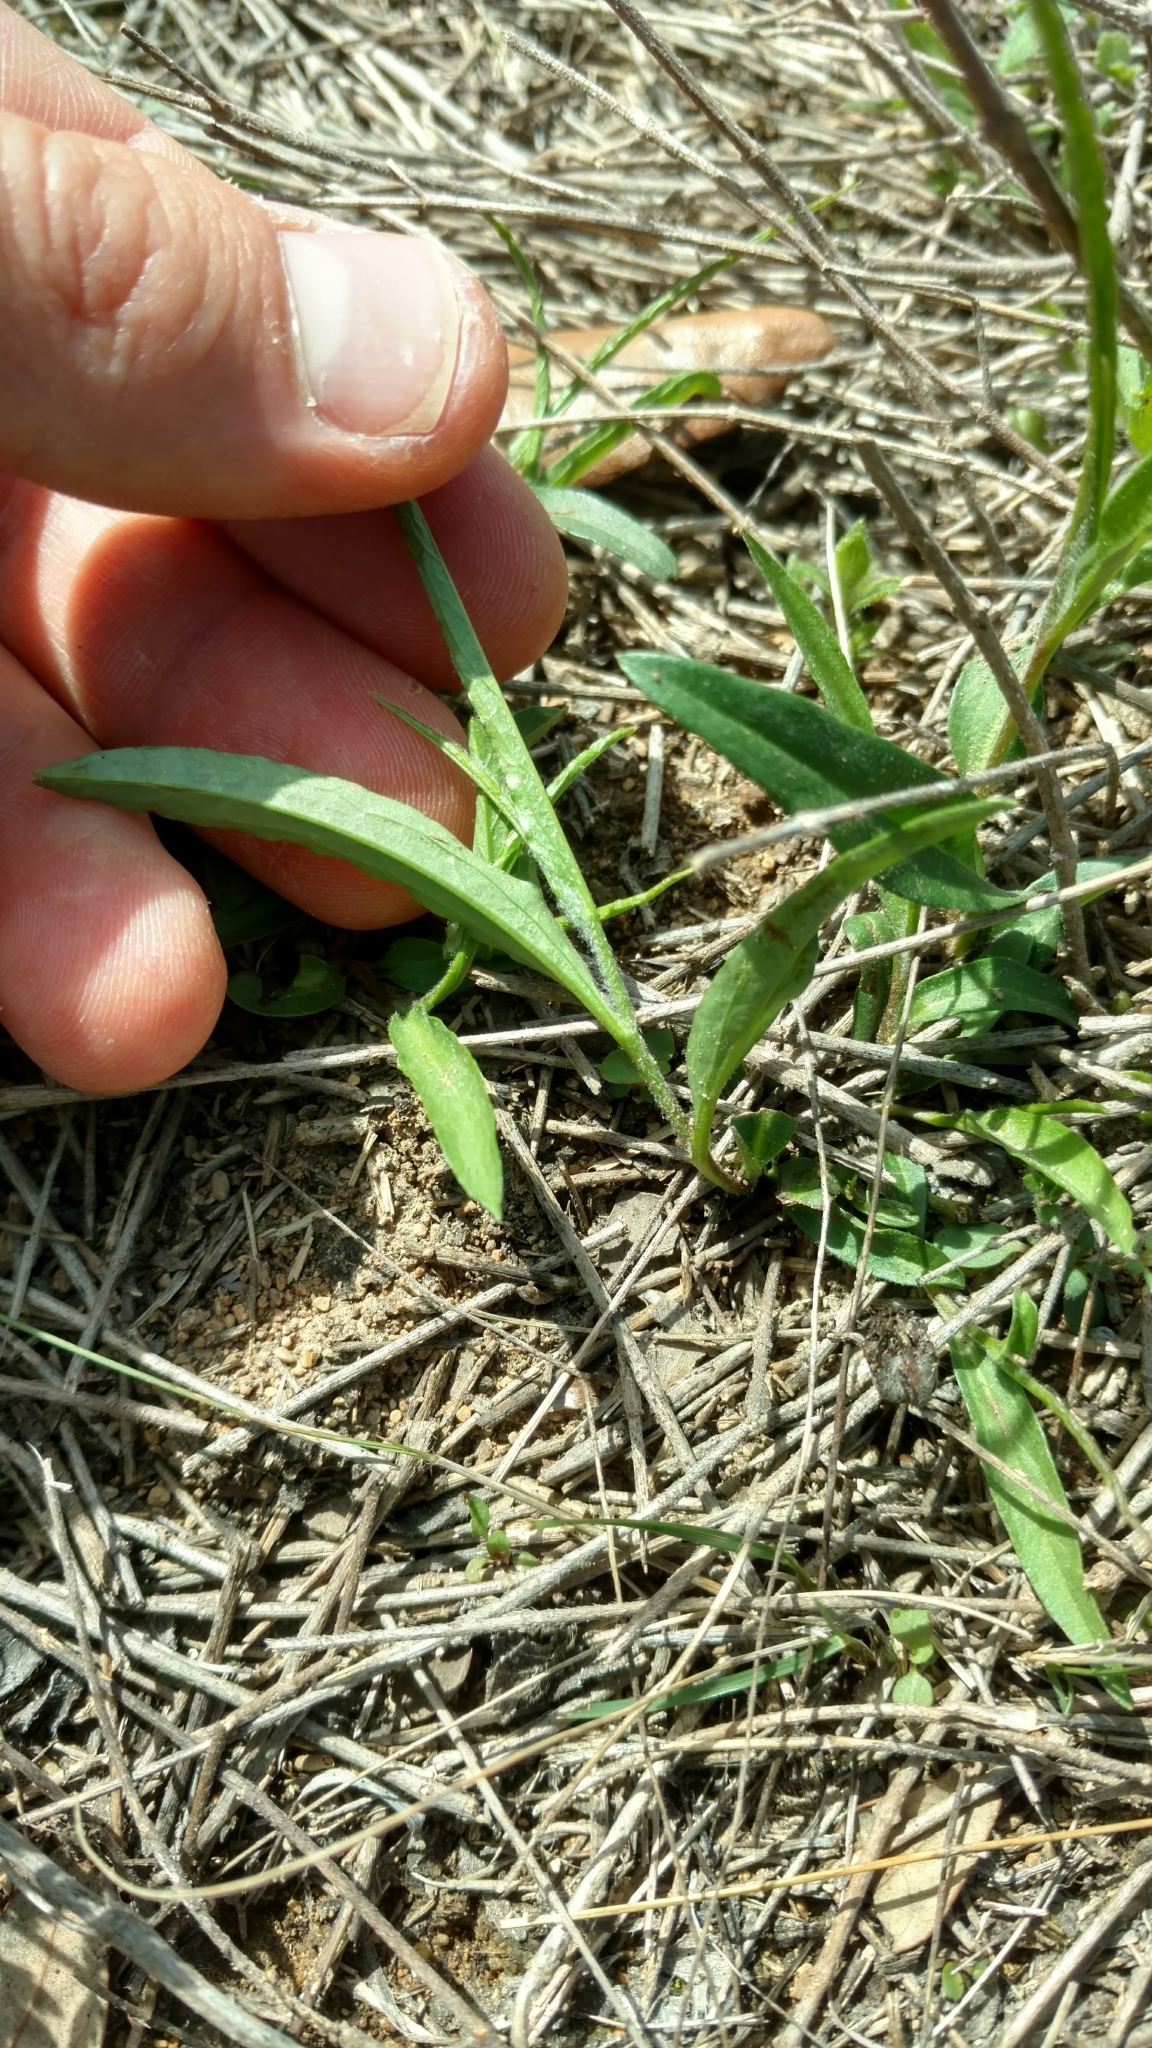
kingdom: Plantae
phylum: Tracheophyta
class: Magnoliopsida
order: Piperales
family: Aristolochiaceae
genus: Aristolochia
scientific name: Aristolochia erecta
